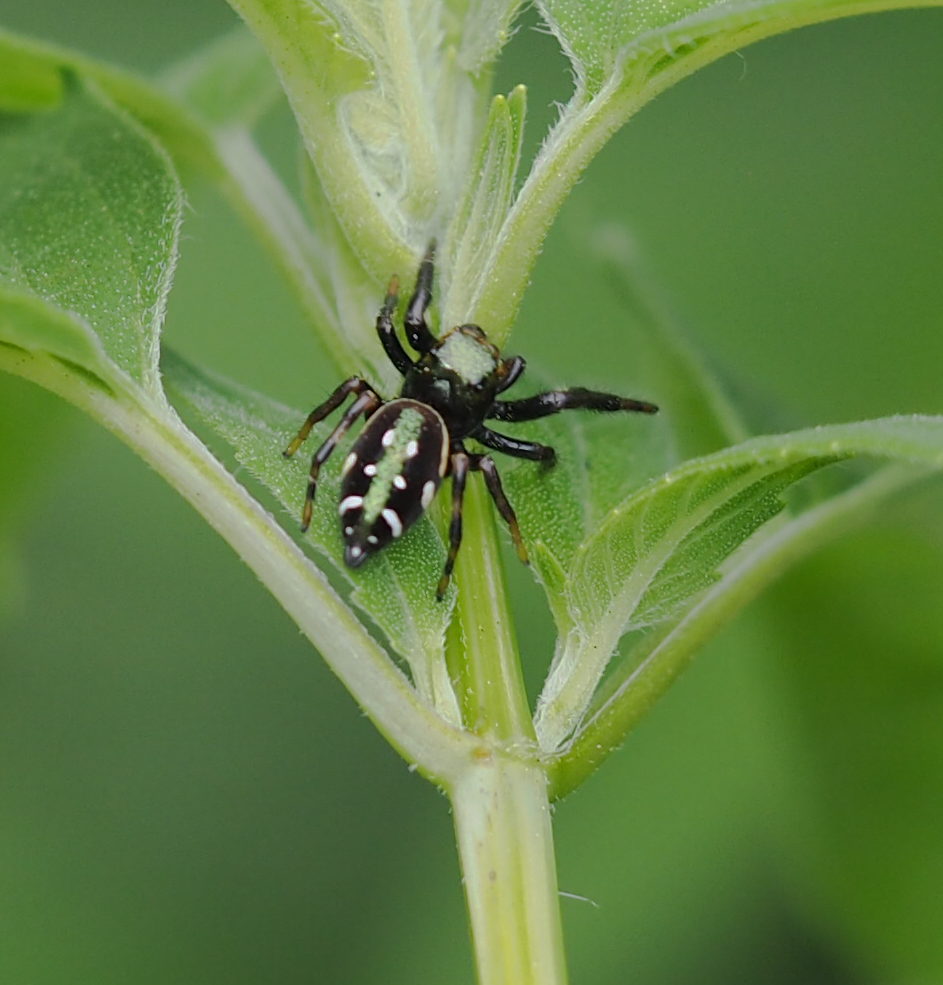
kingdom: Animalia
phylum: Arthropoda
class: Arachnida
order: Araneae
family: Salticidae
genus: Paraphidippus
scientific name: Paraphidippus aurantius
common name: Jumping spiders
